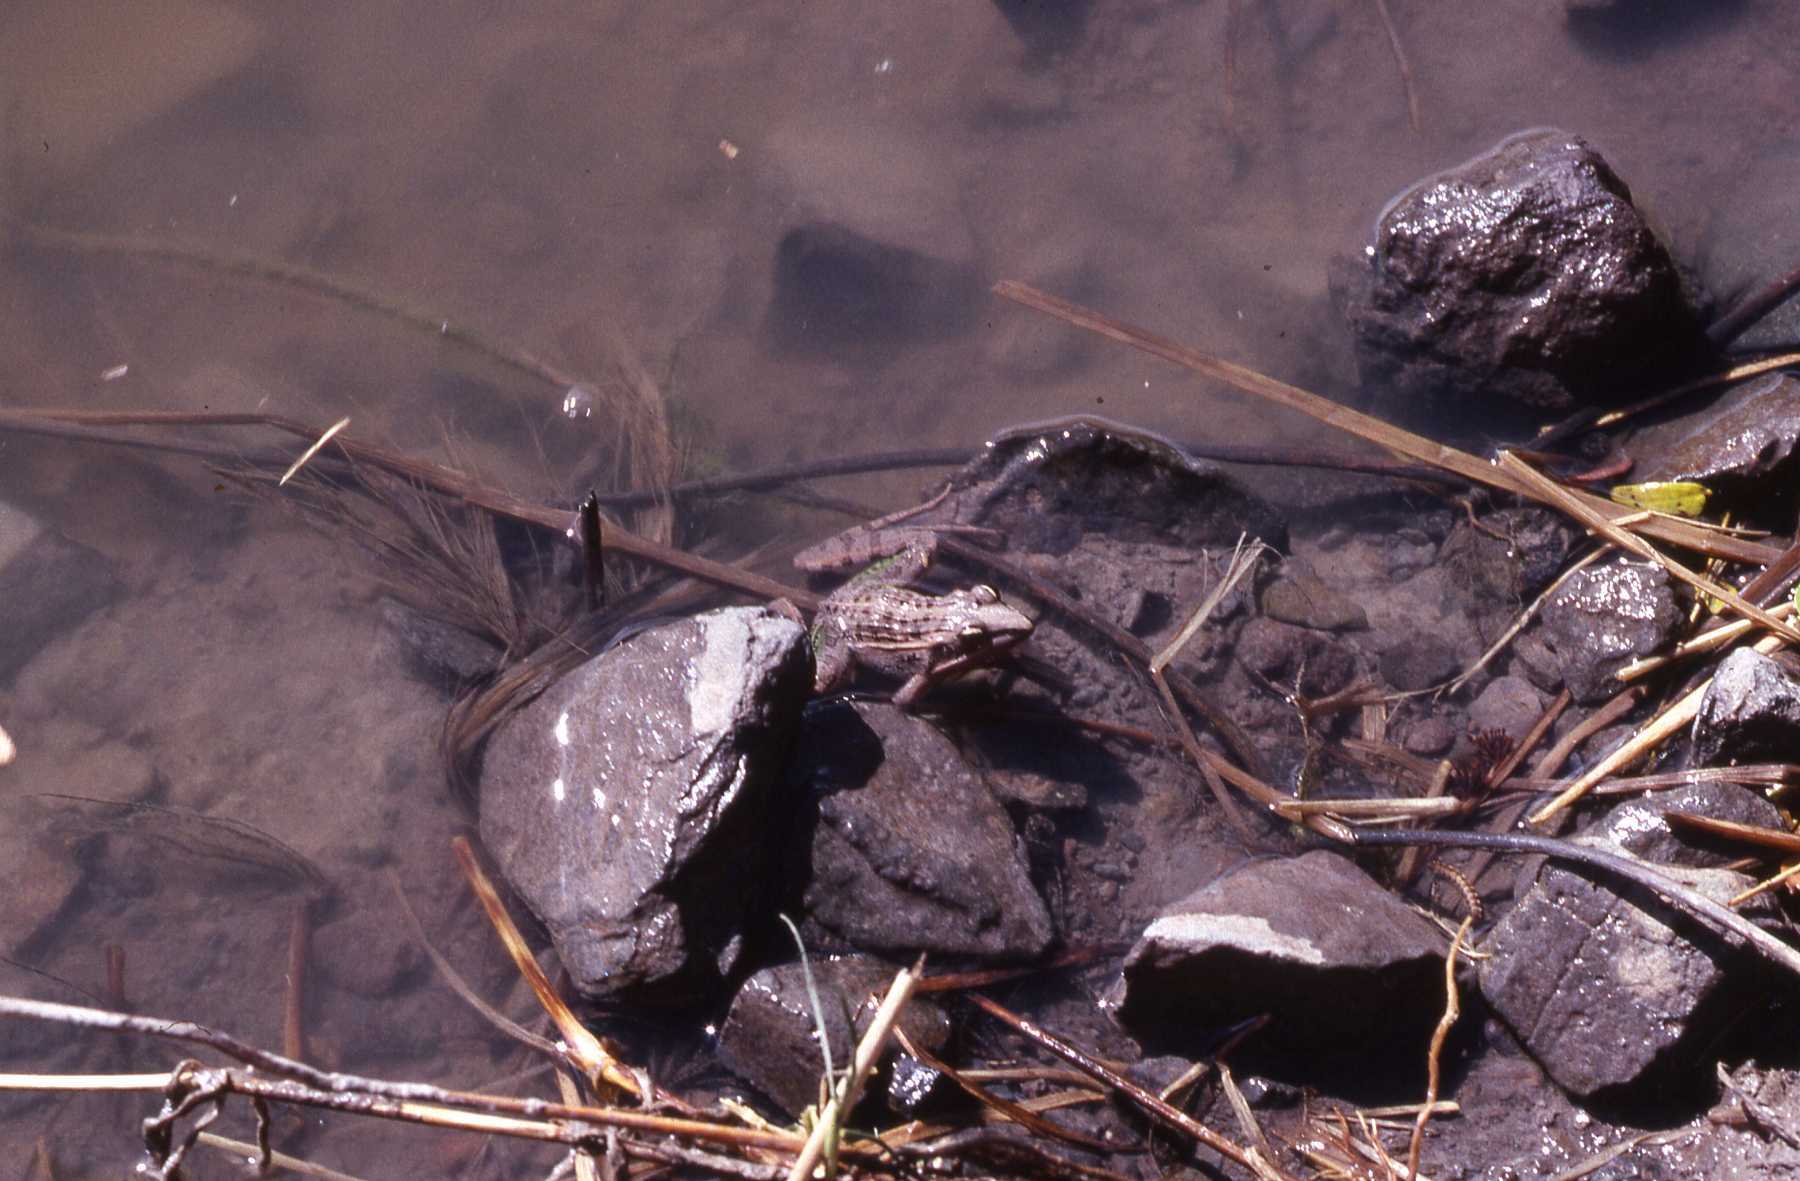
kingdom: Animalia
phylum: Chordata
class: Amphibia
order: Anura
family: Ptychadenidae
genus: Ptychadena
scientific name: Ptychadena mascareniensis
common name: Mascarene grass frog
